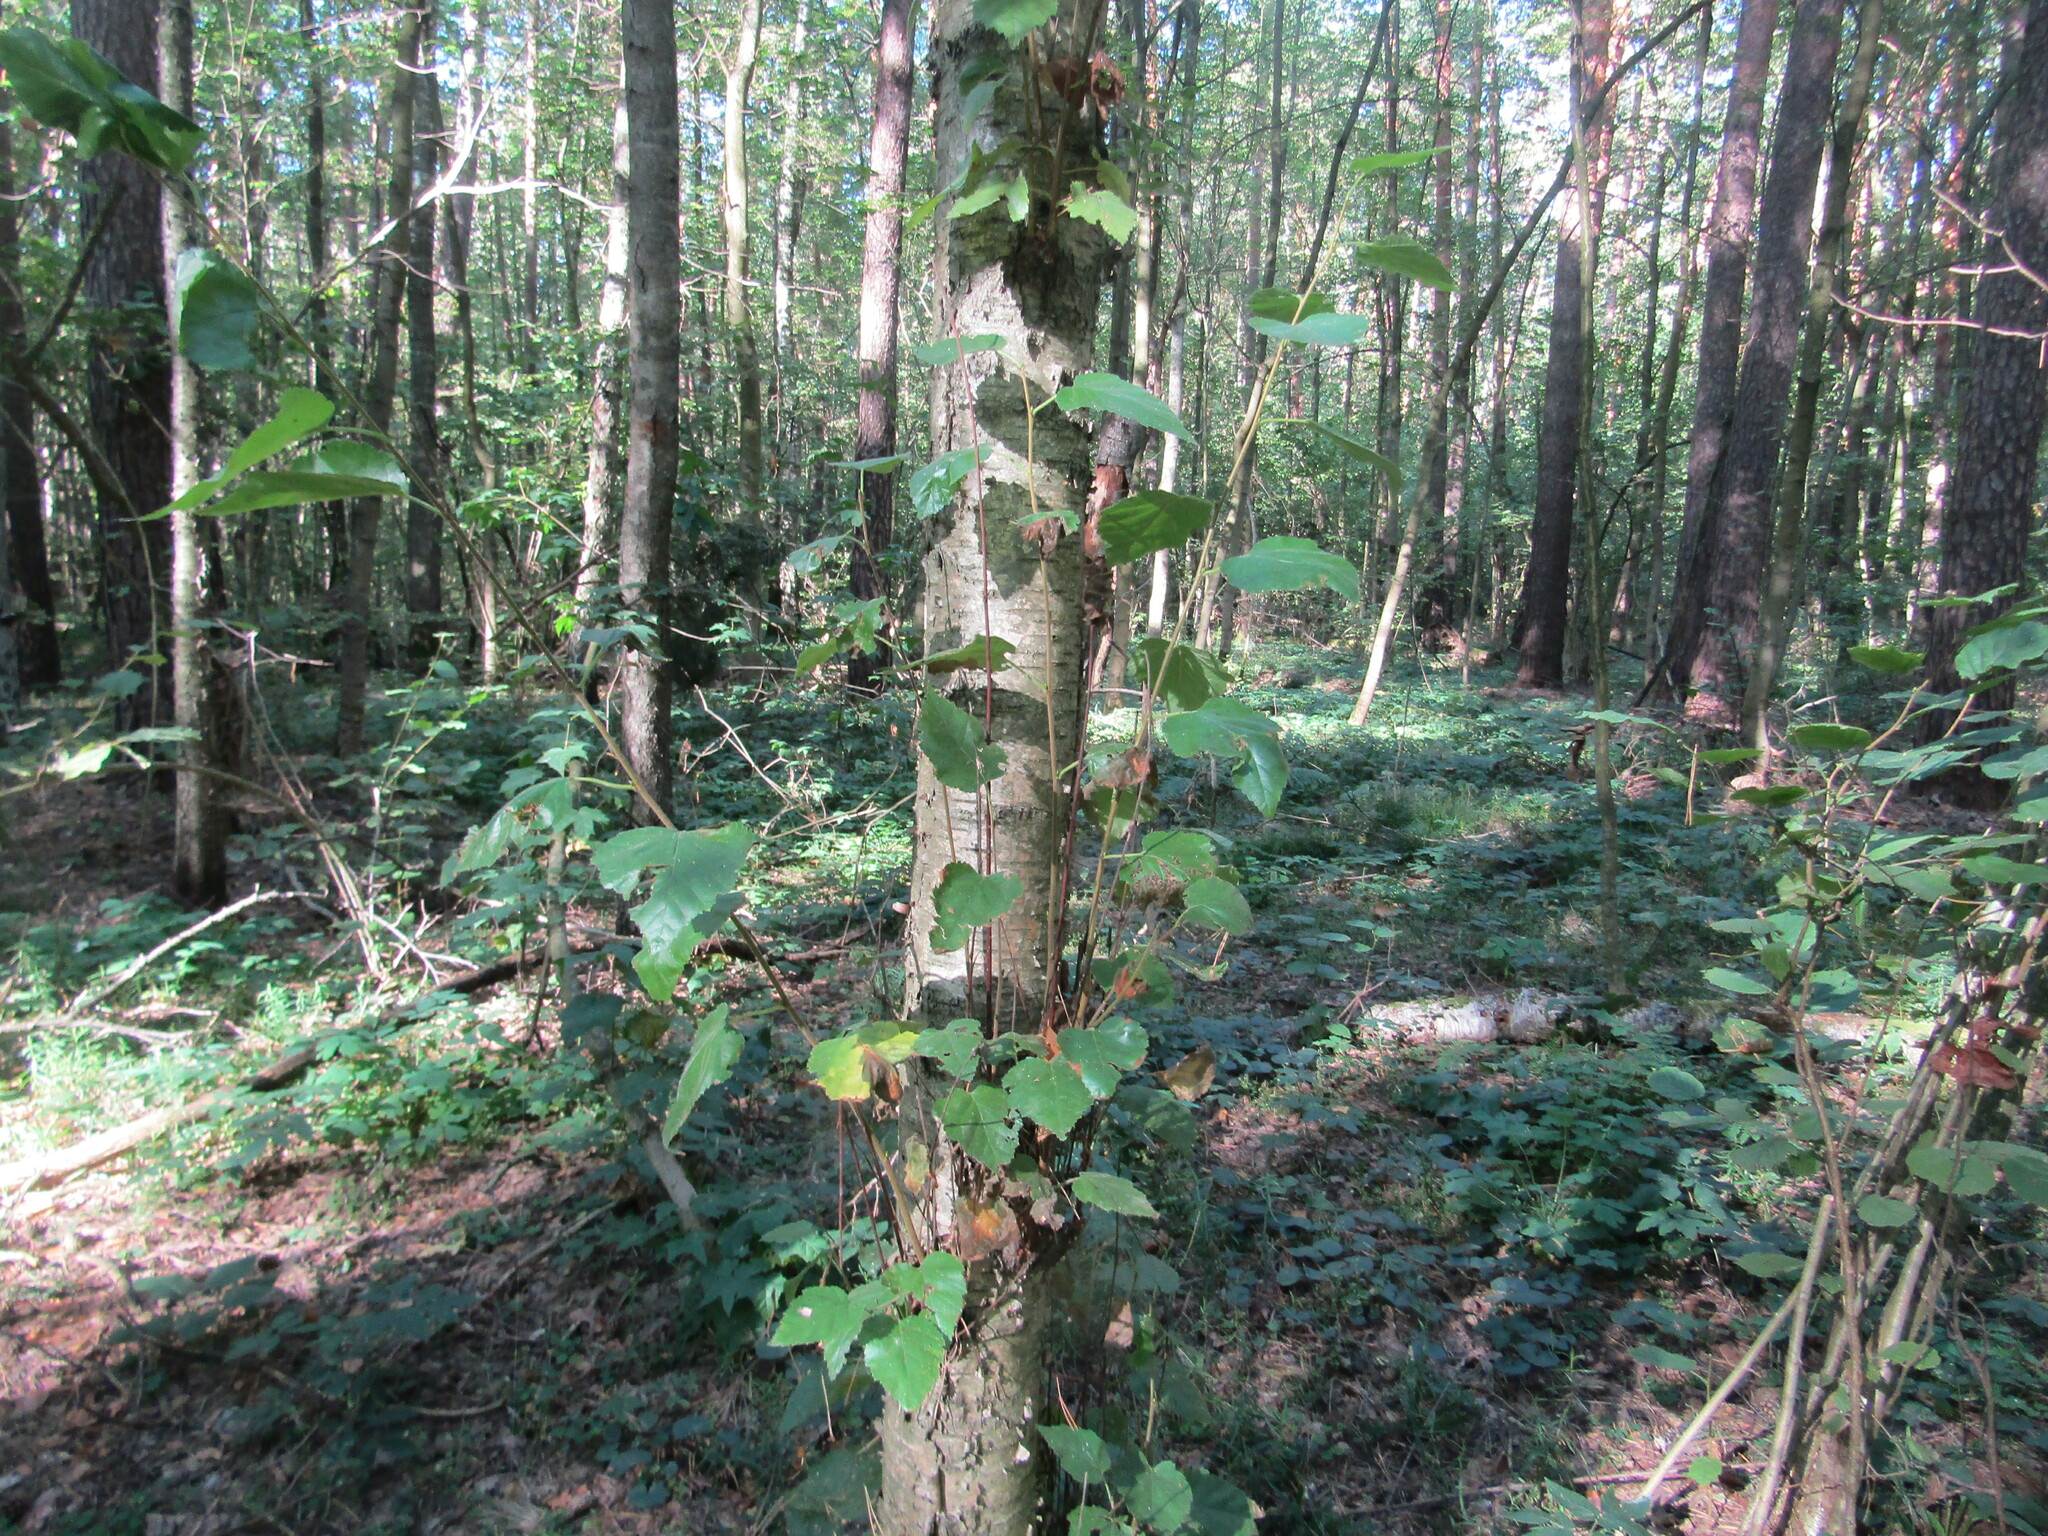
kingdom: Plantae
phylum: Tracheophyta
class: Magnoliopsida
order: Fagales
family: Betulaceae
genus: Betula
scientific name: Betula pubescens
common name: Downy birch
